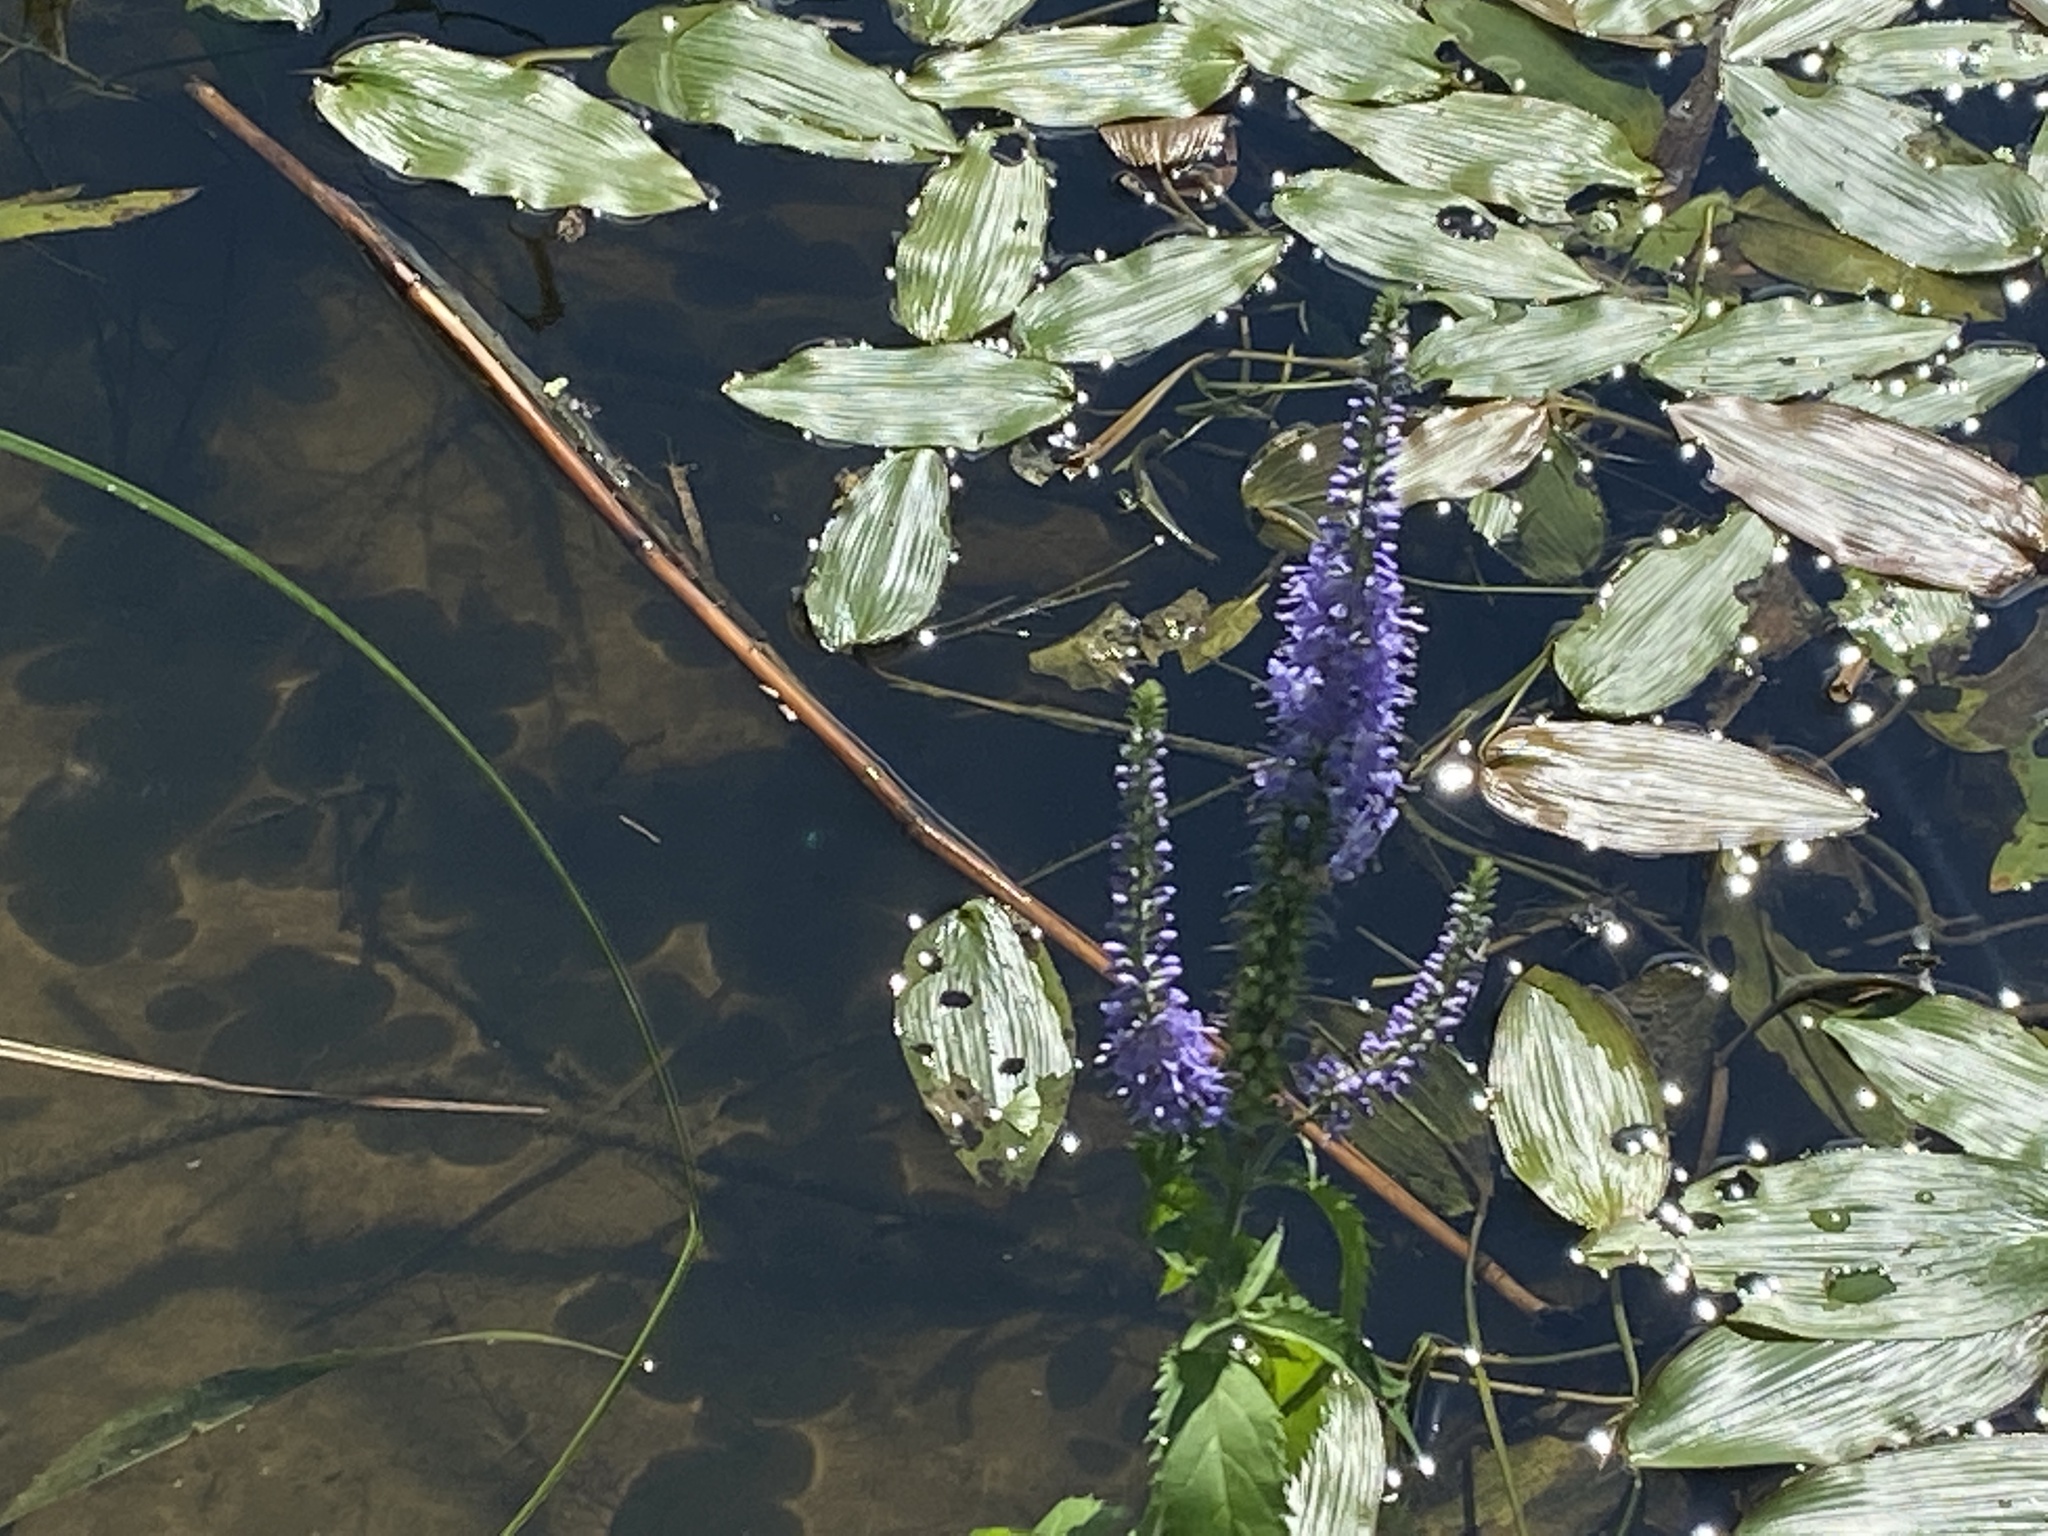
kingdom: Plantae
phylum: Tracheophyta
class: Magnoliopsida
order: Lamiales
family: Plantaginaceae
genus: Veronica
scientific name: Veronica longifolia
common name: Garden speedwell
